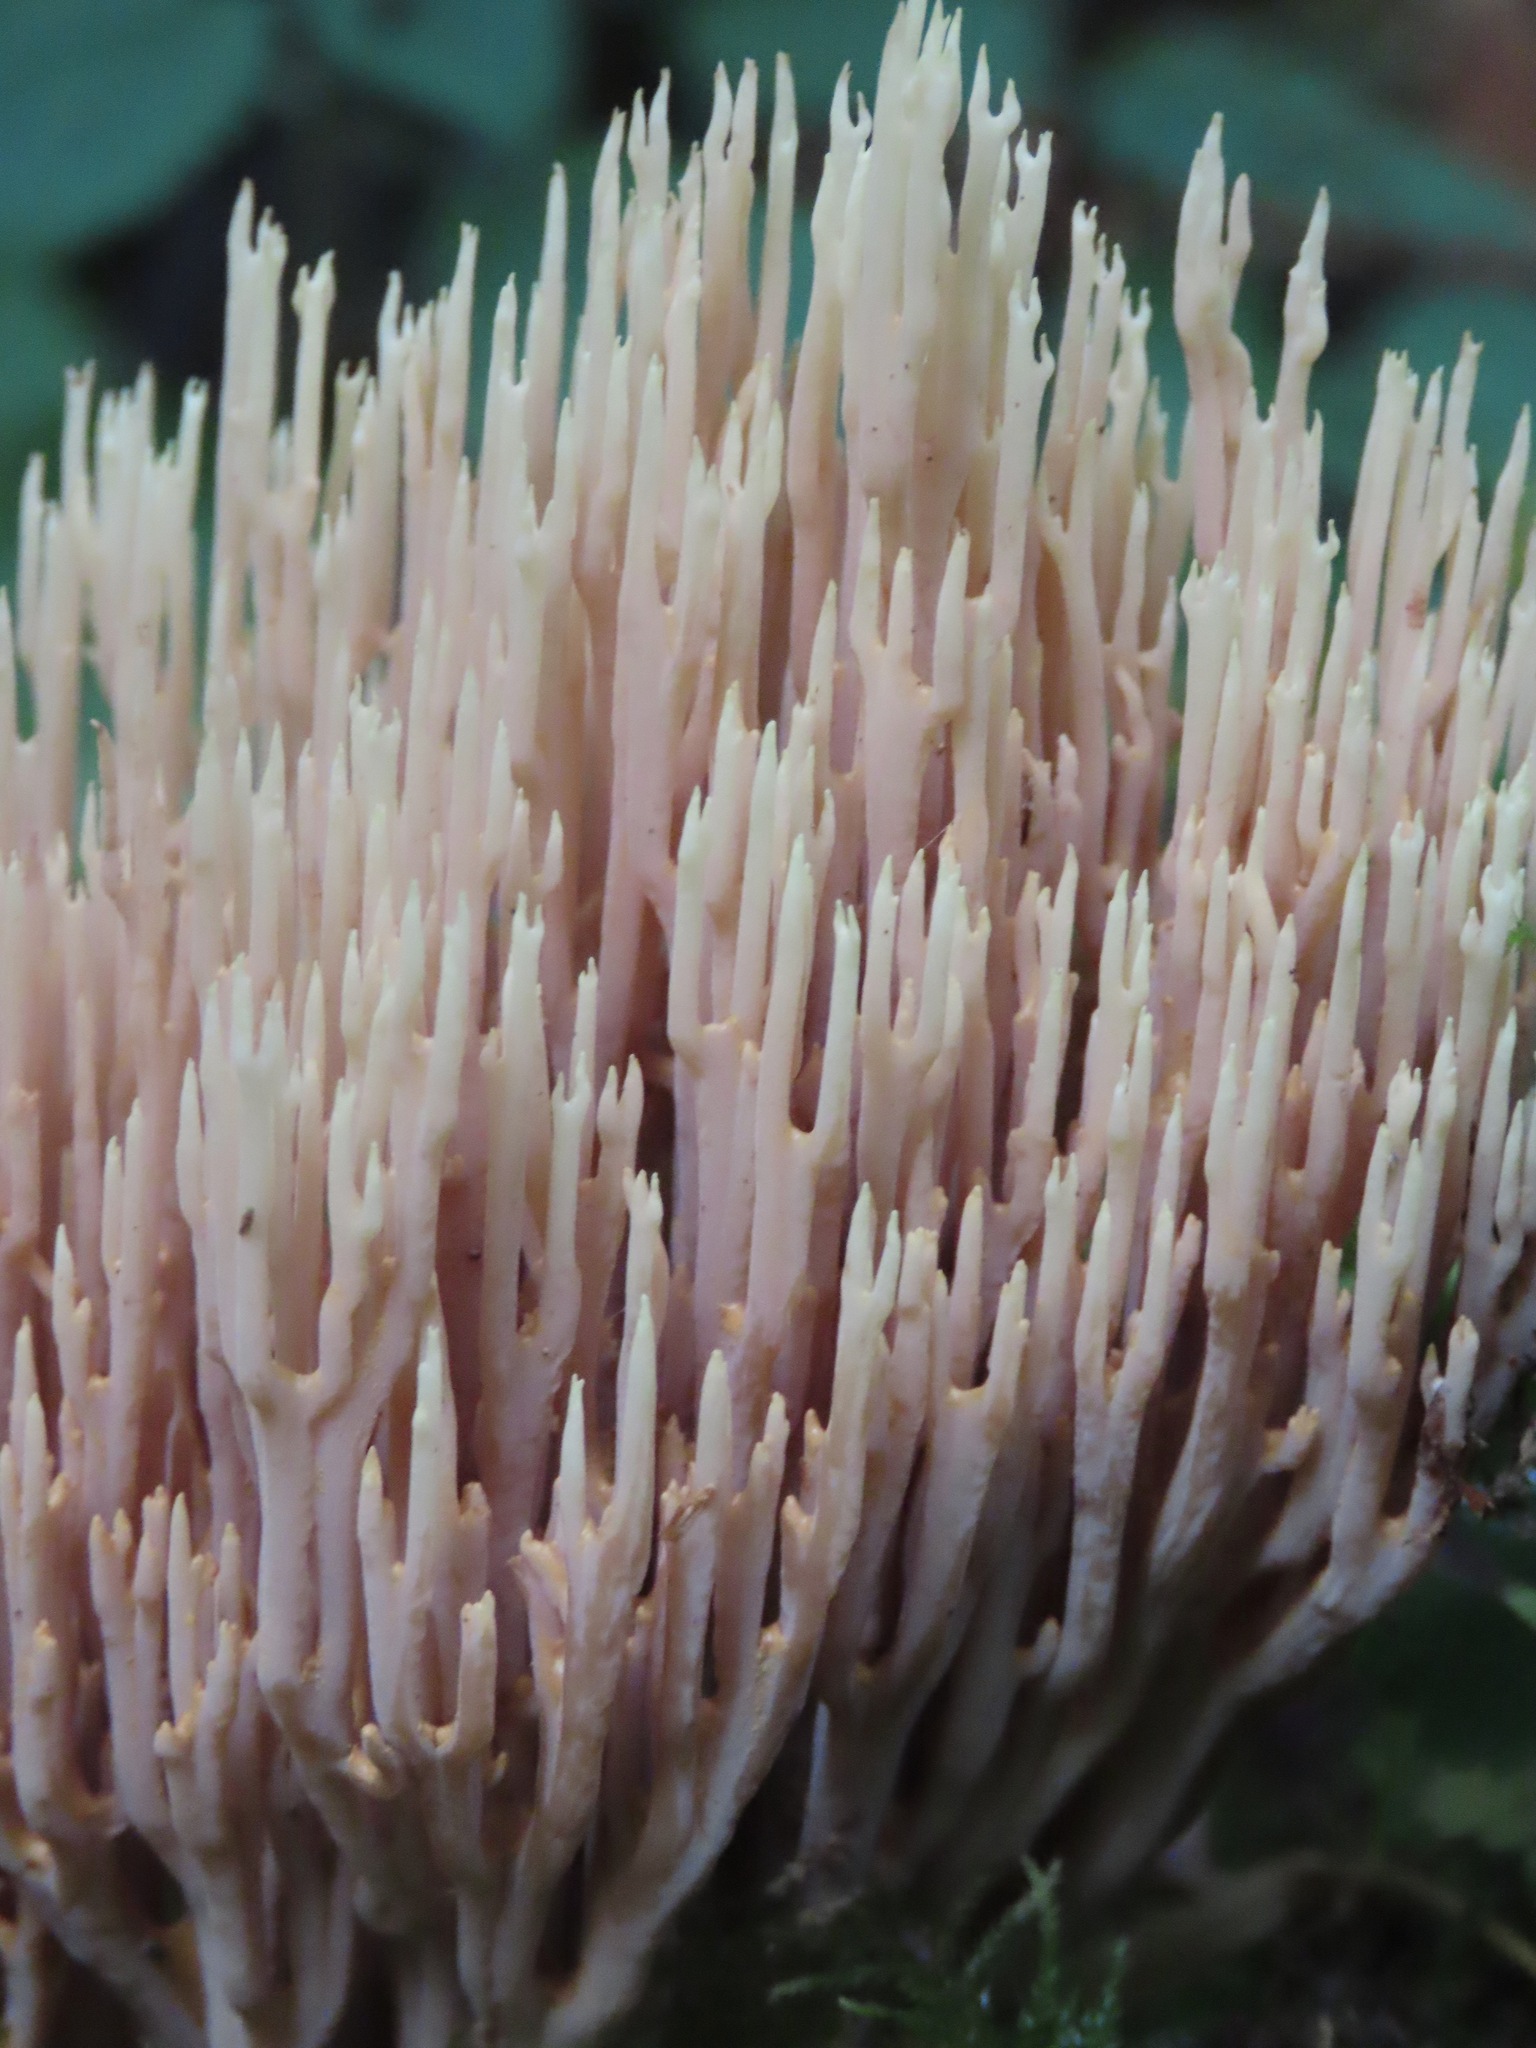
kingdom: Fungi
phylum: Basidiomycota
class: Agaricomycetes
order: Gomphales
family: Gomphaceae
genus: Ramaria
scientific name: Ramaria stricta
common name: Upright coral
